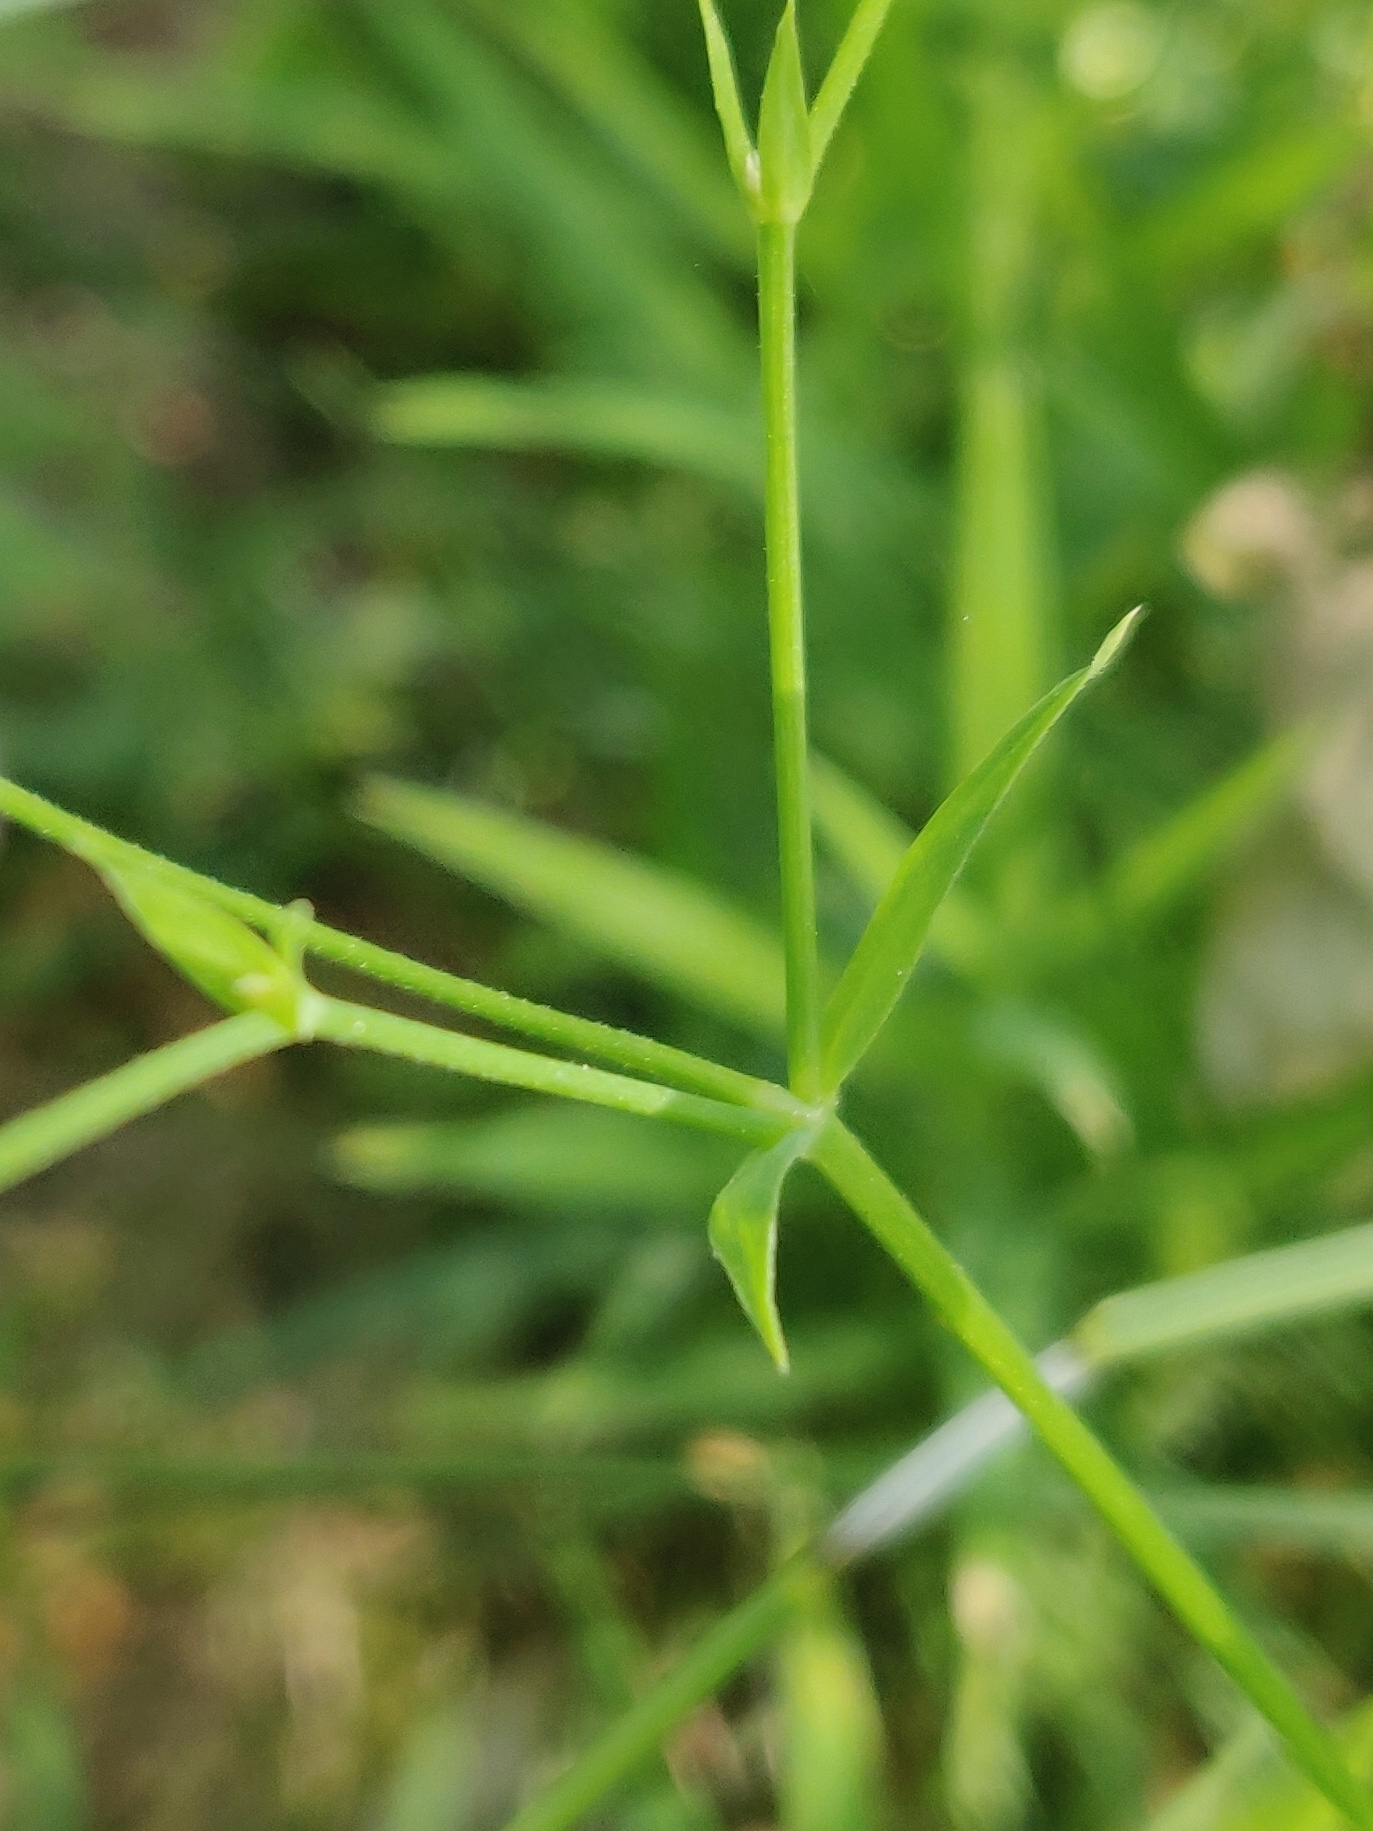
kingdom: Plantae
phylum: Tracheophyta
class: Magnoliopsida
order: Caryophyllales
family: Caryophyllaceae
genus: Rabelera
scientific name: Rabelera holostea
